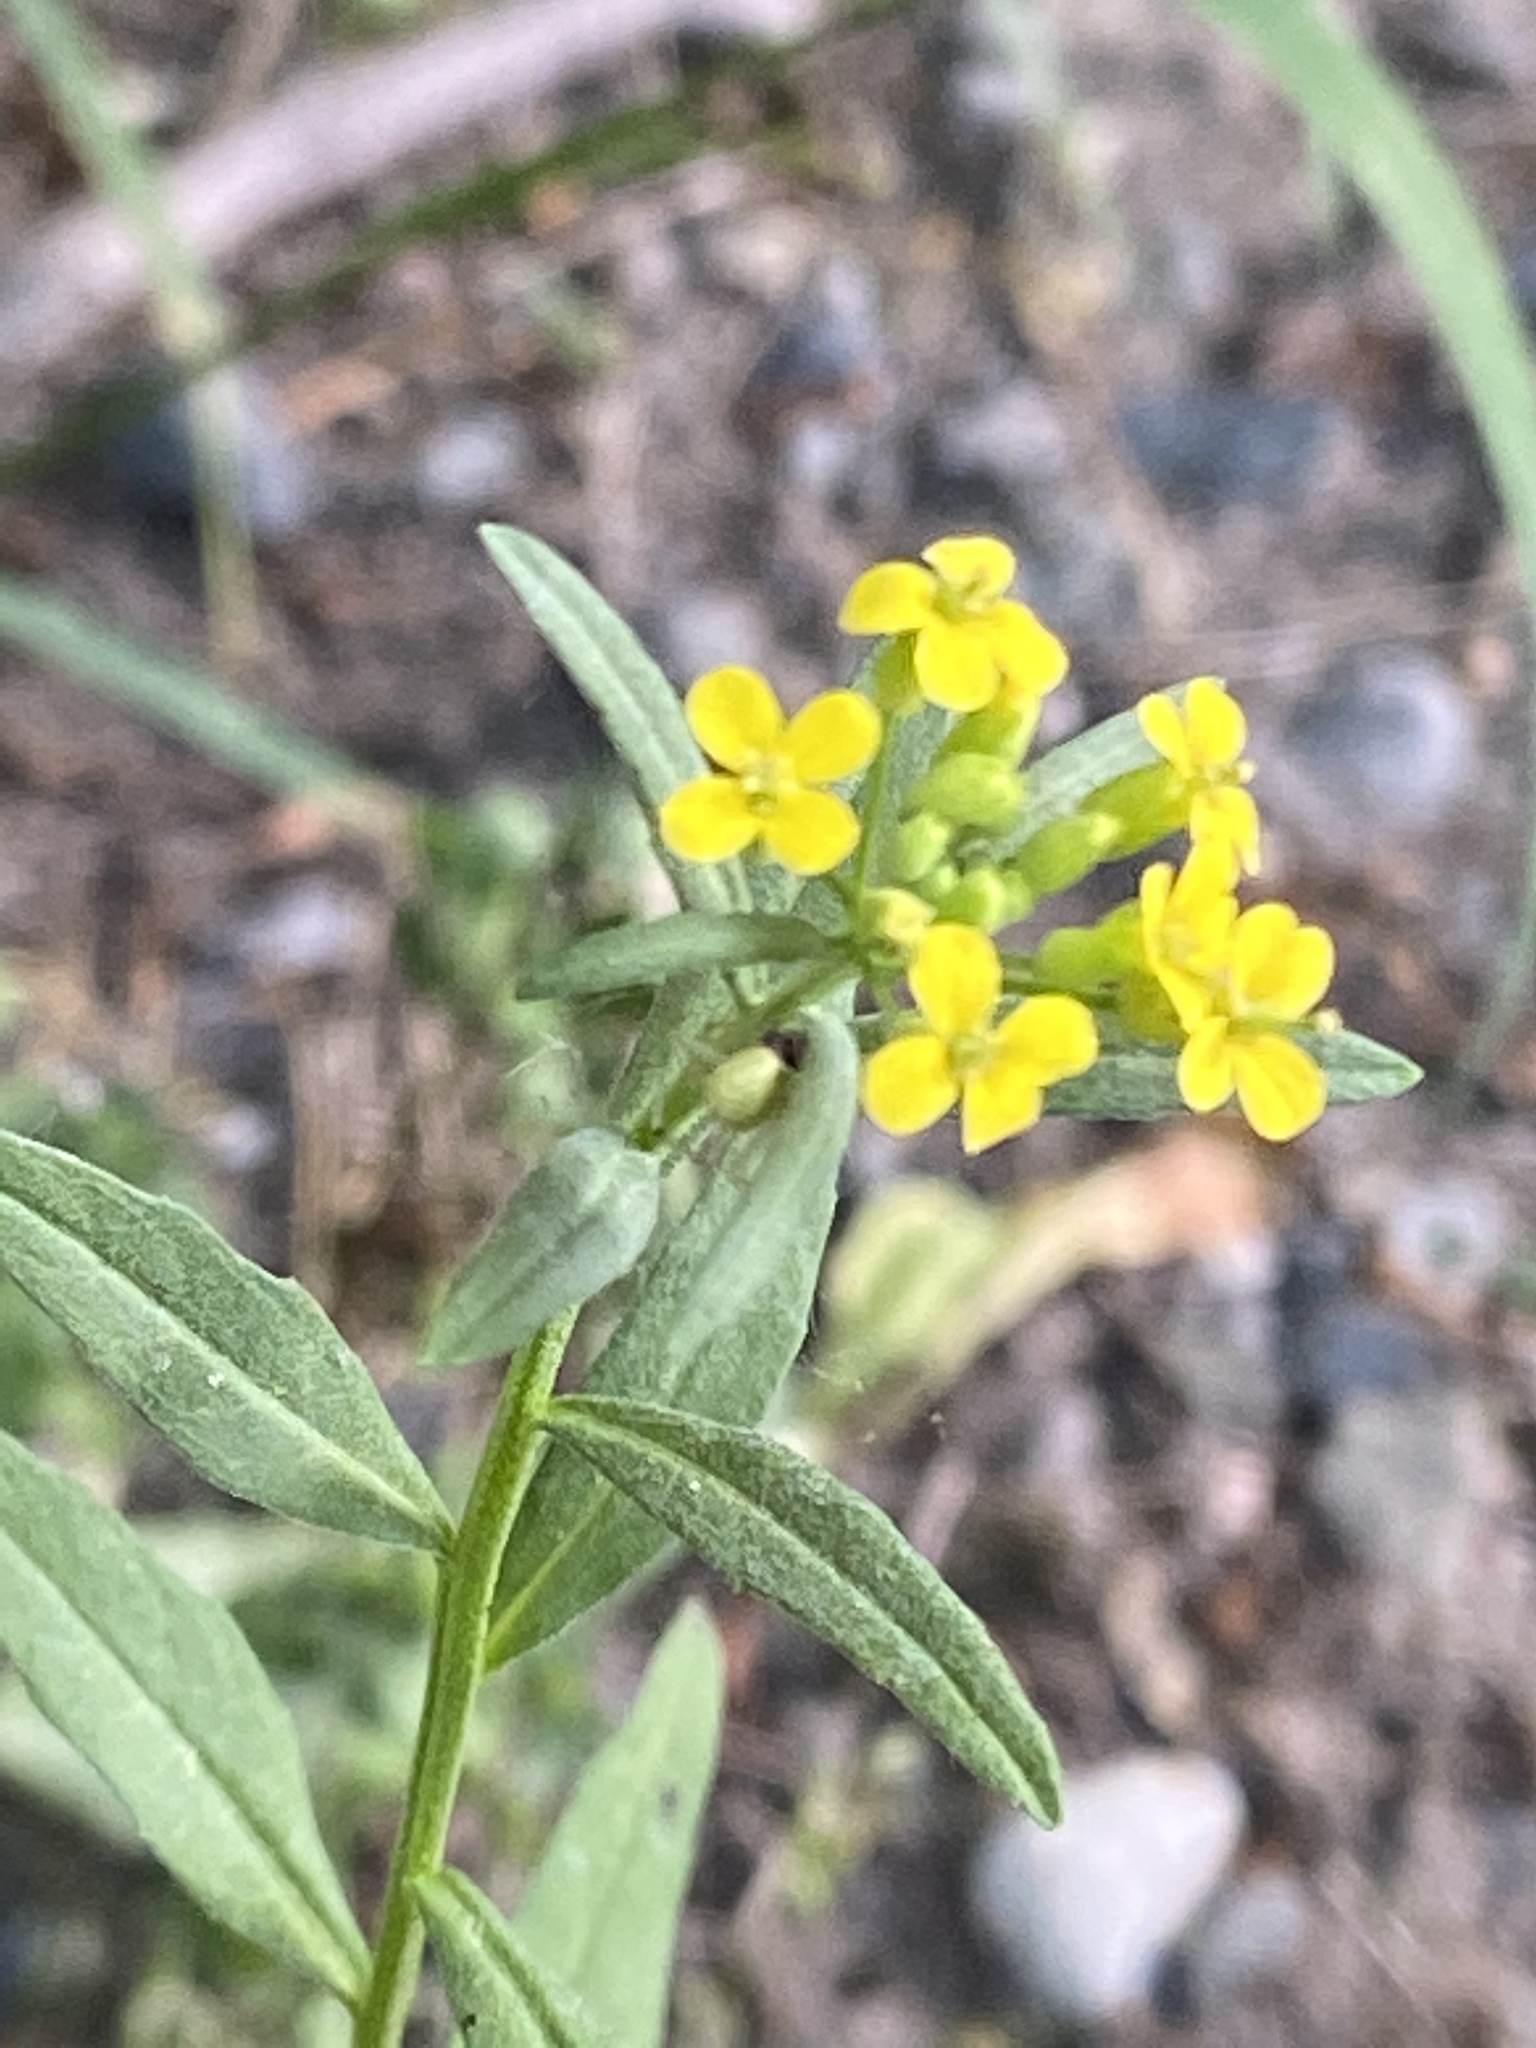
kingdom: Plantae
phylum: Tracheophyta
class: Magnoliopsida
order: Brassicales
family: Brassicaceae
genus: Erysimum
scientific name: Erysimum cheiranthoides
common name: Treacle mustard
